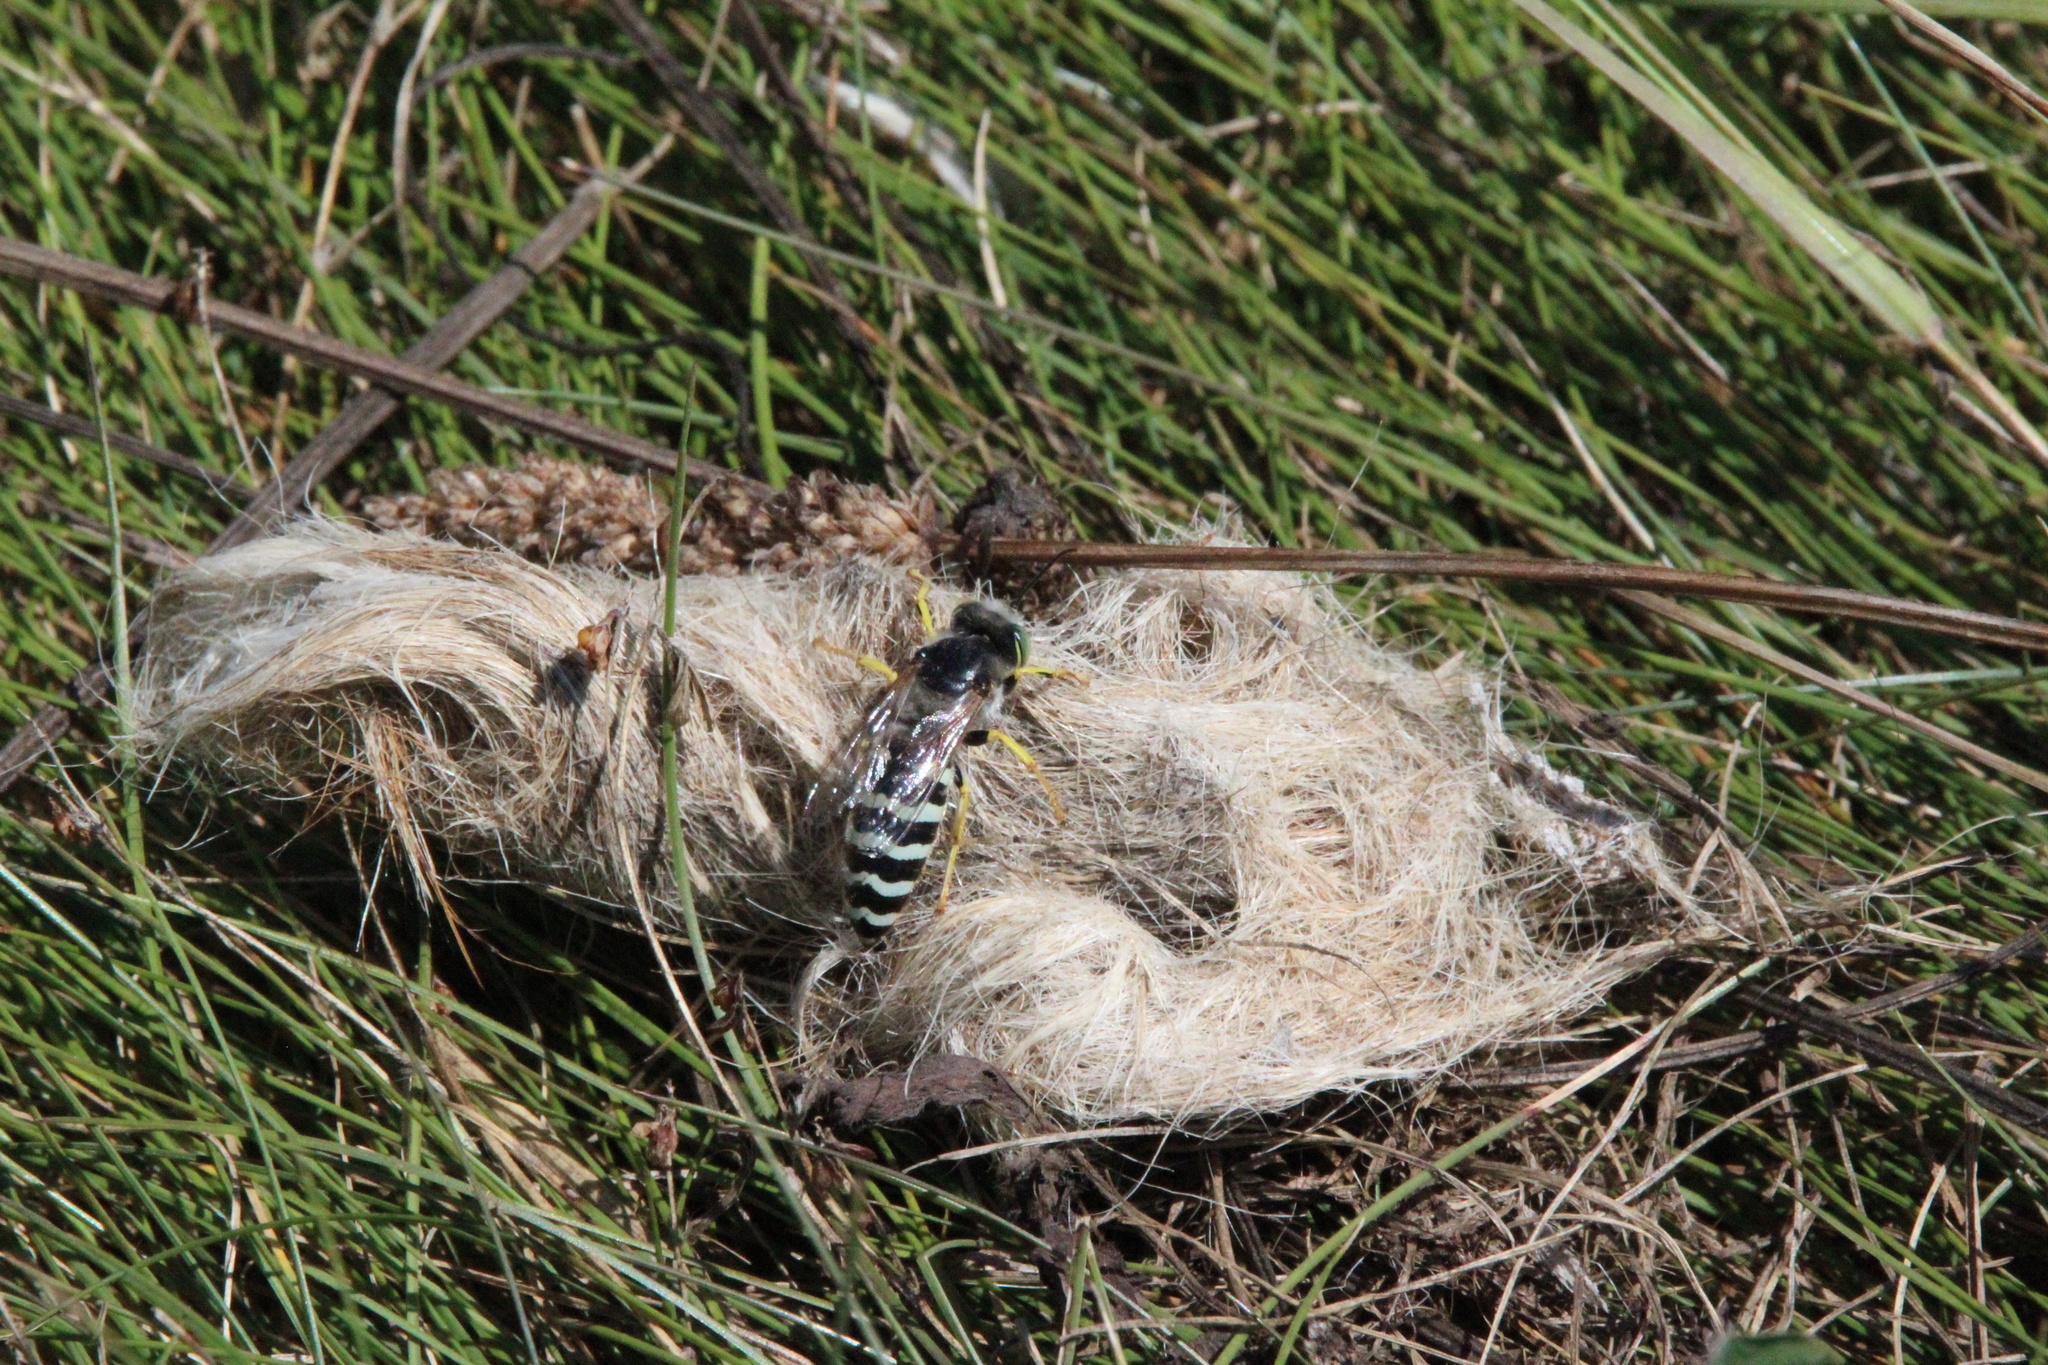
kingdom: Animalia
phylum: Arthropoda
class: Insecta
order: Hymenoptera
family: Crabronidae
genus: Bembix
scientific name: Bembix americana
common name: American sand wasp
